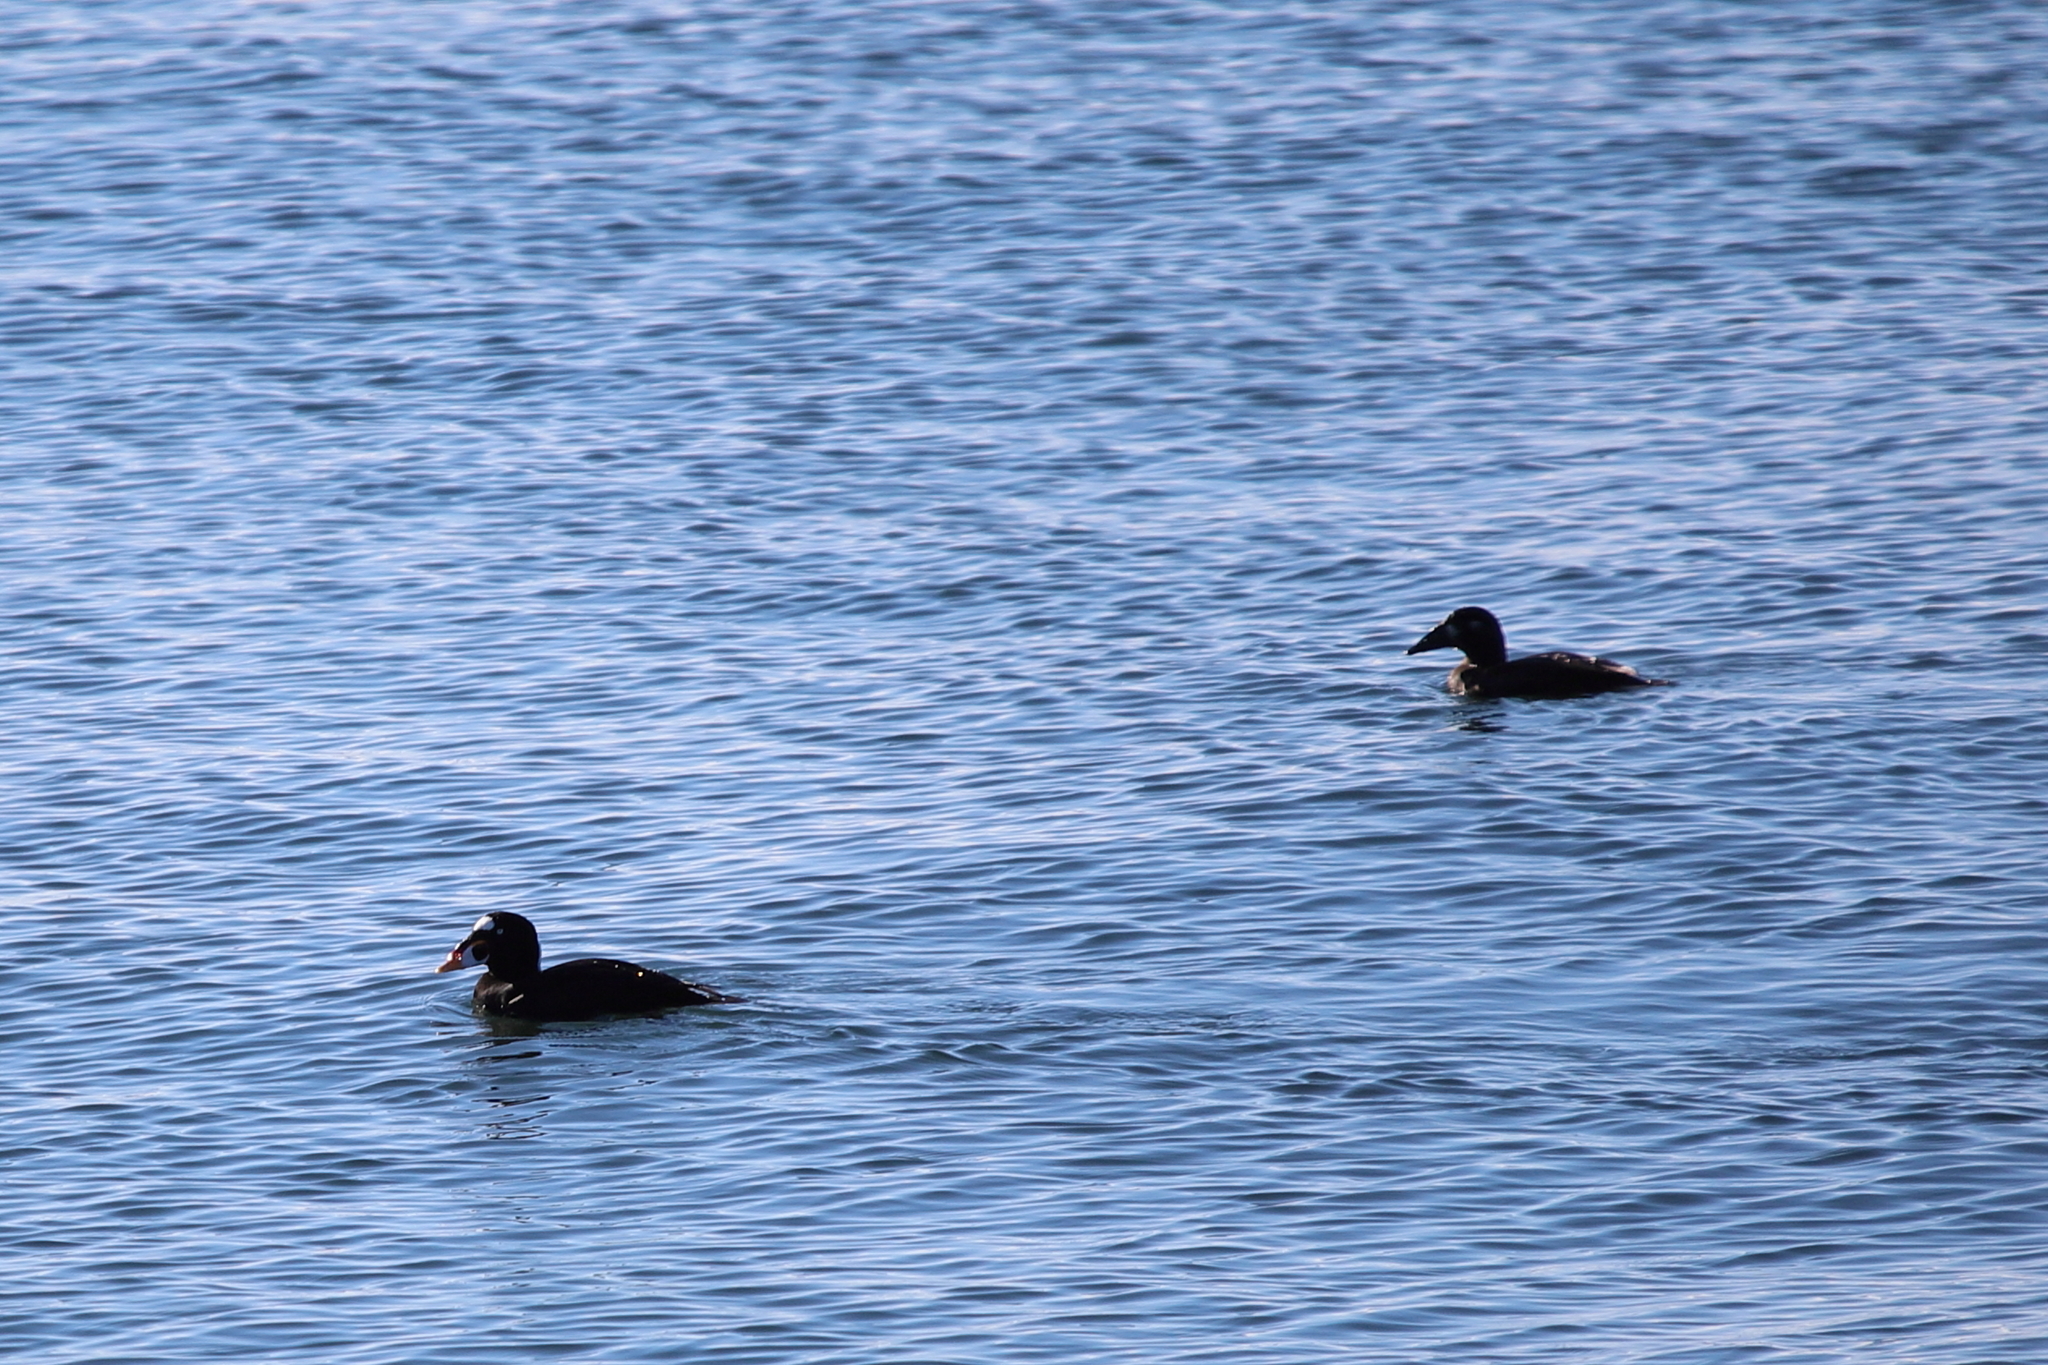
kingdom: Animalia
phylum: Chordata
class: Aves
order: Anseriformes
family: Anatidae
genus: Melanitta
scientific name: Melanitta perspicillata
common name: Surf scoter
